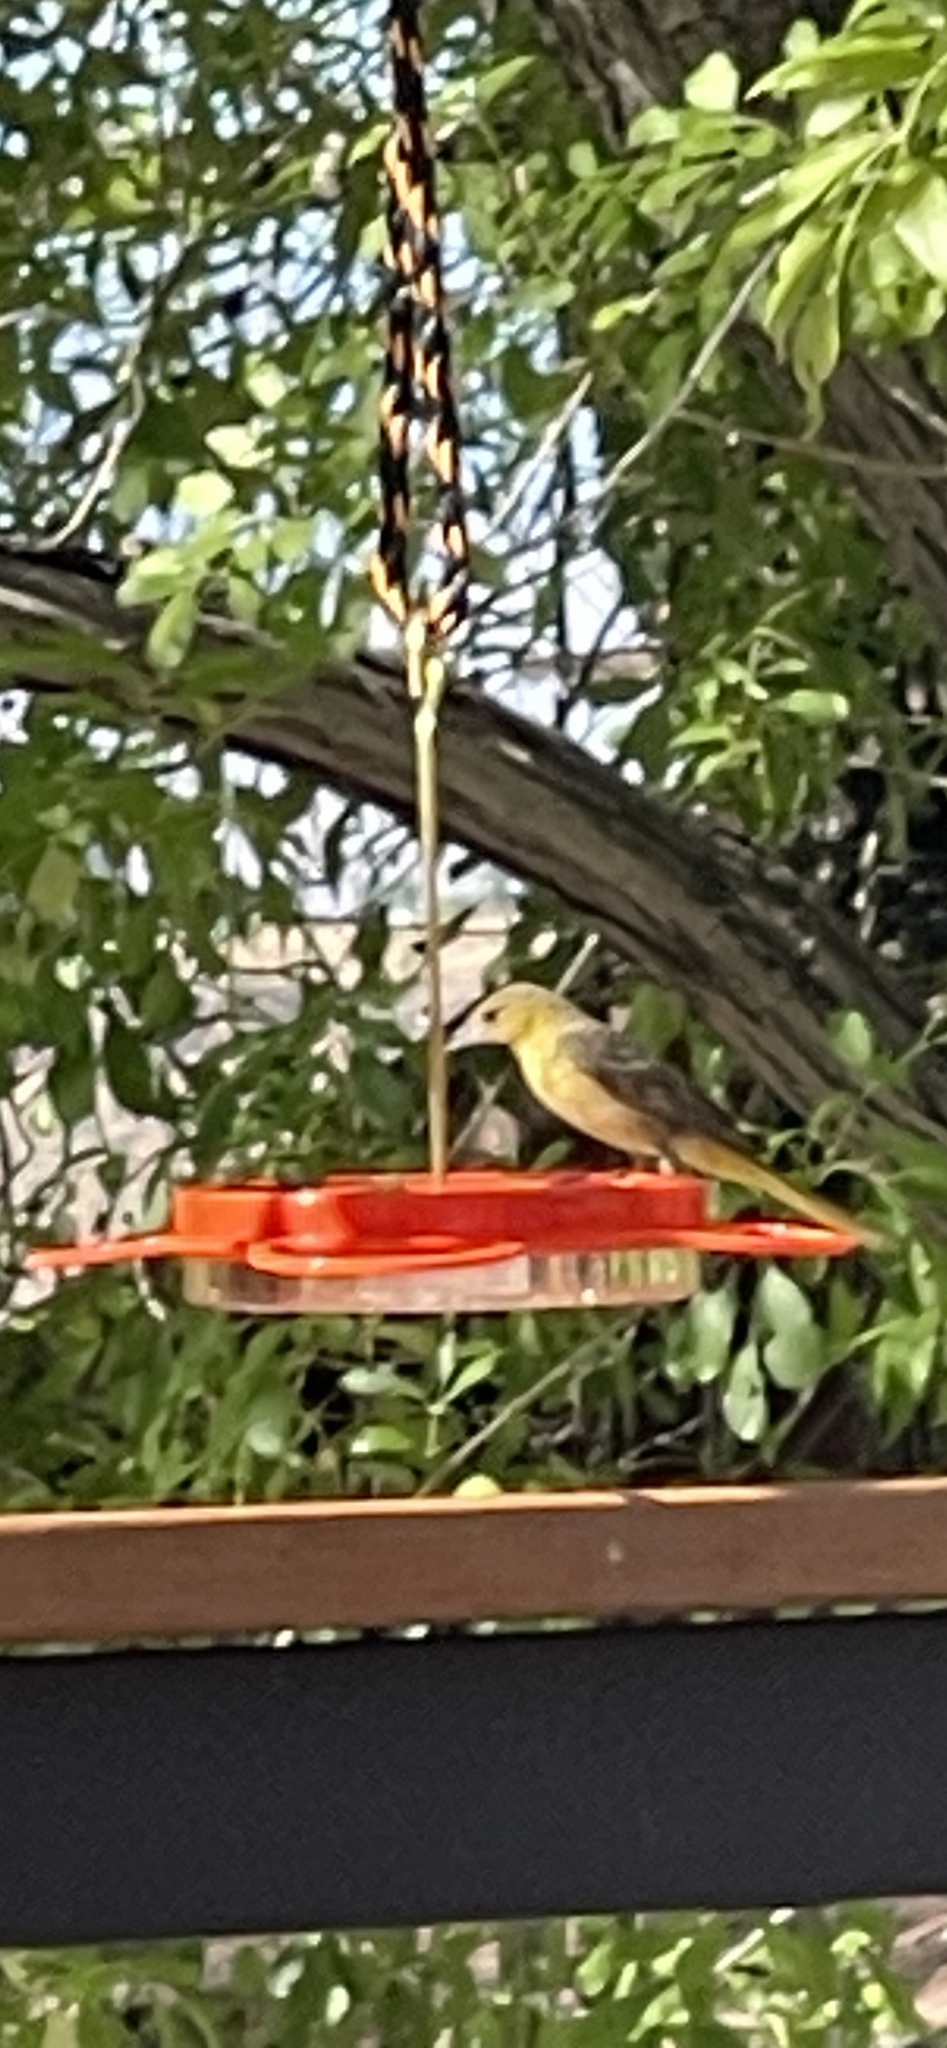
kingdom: Animalia
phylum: Chordata
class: Aves
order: Passeriformes
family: Icteridae
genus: Icterus
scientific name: Icterus cucullatus
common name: Hooded oriole
